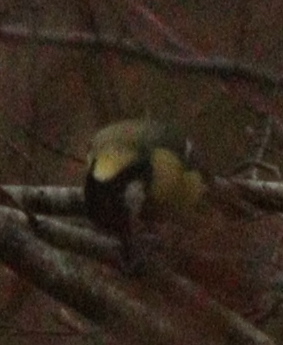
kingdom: Animalia
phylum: Chordata
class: Aves
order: Passeriformes
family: Paridae
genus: Parus
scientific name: Parus major
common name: Great tit
